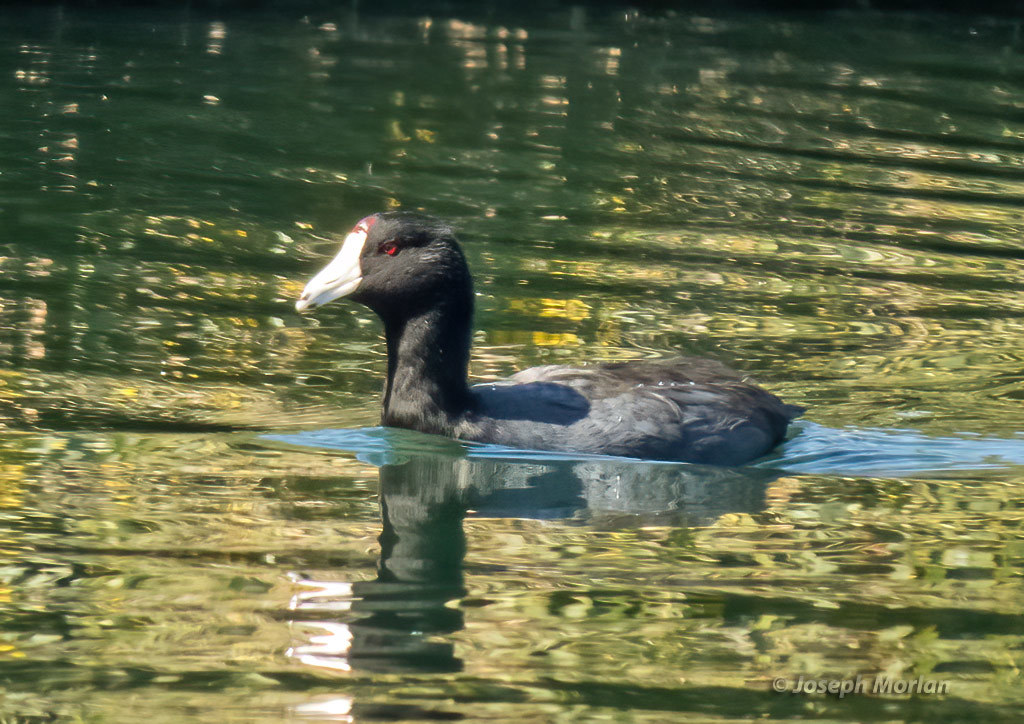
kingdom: Animalia
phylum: Chordata
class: Aves
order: Gruiformes
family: Rallidae
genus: Fulica
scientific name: Fulica americana
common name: American coot
